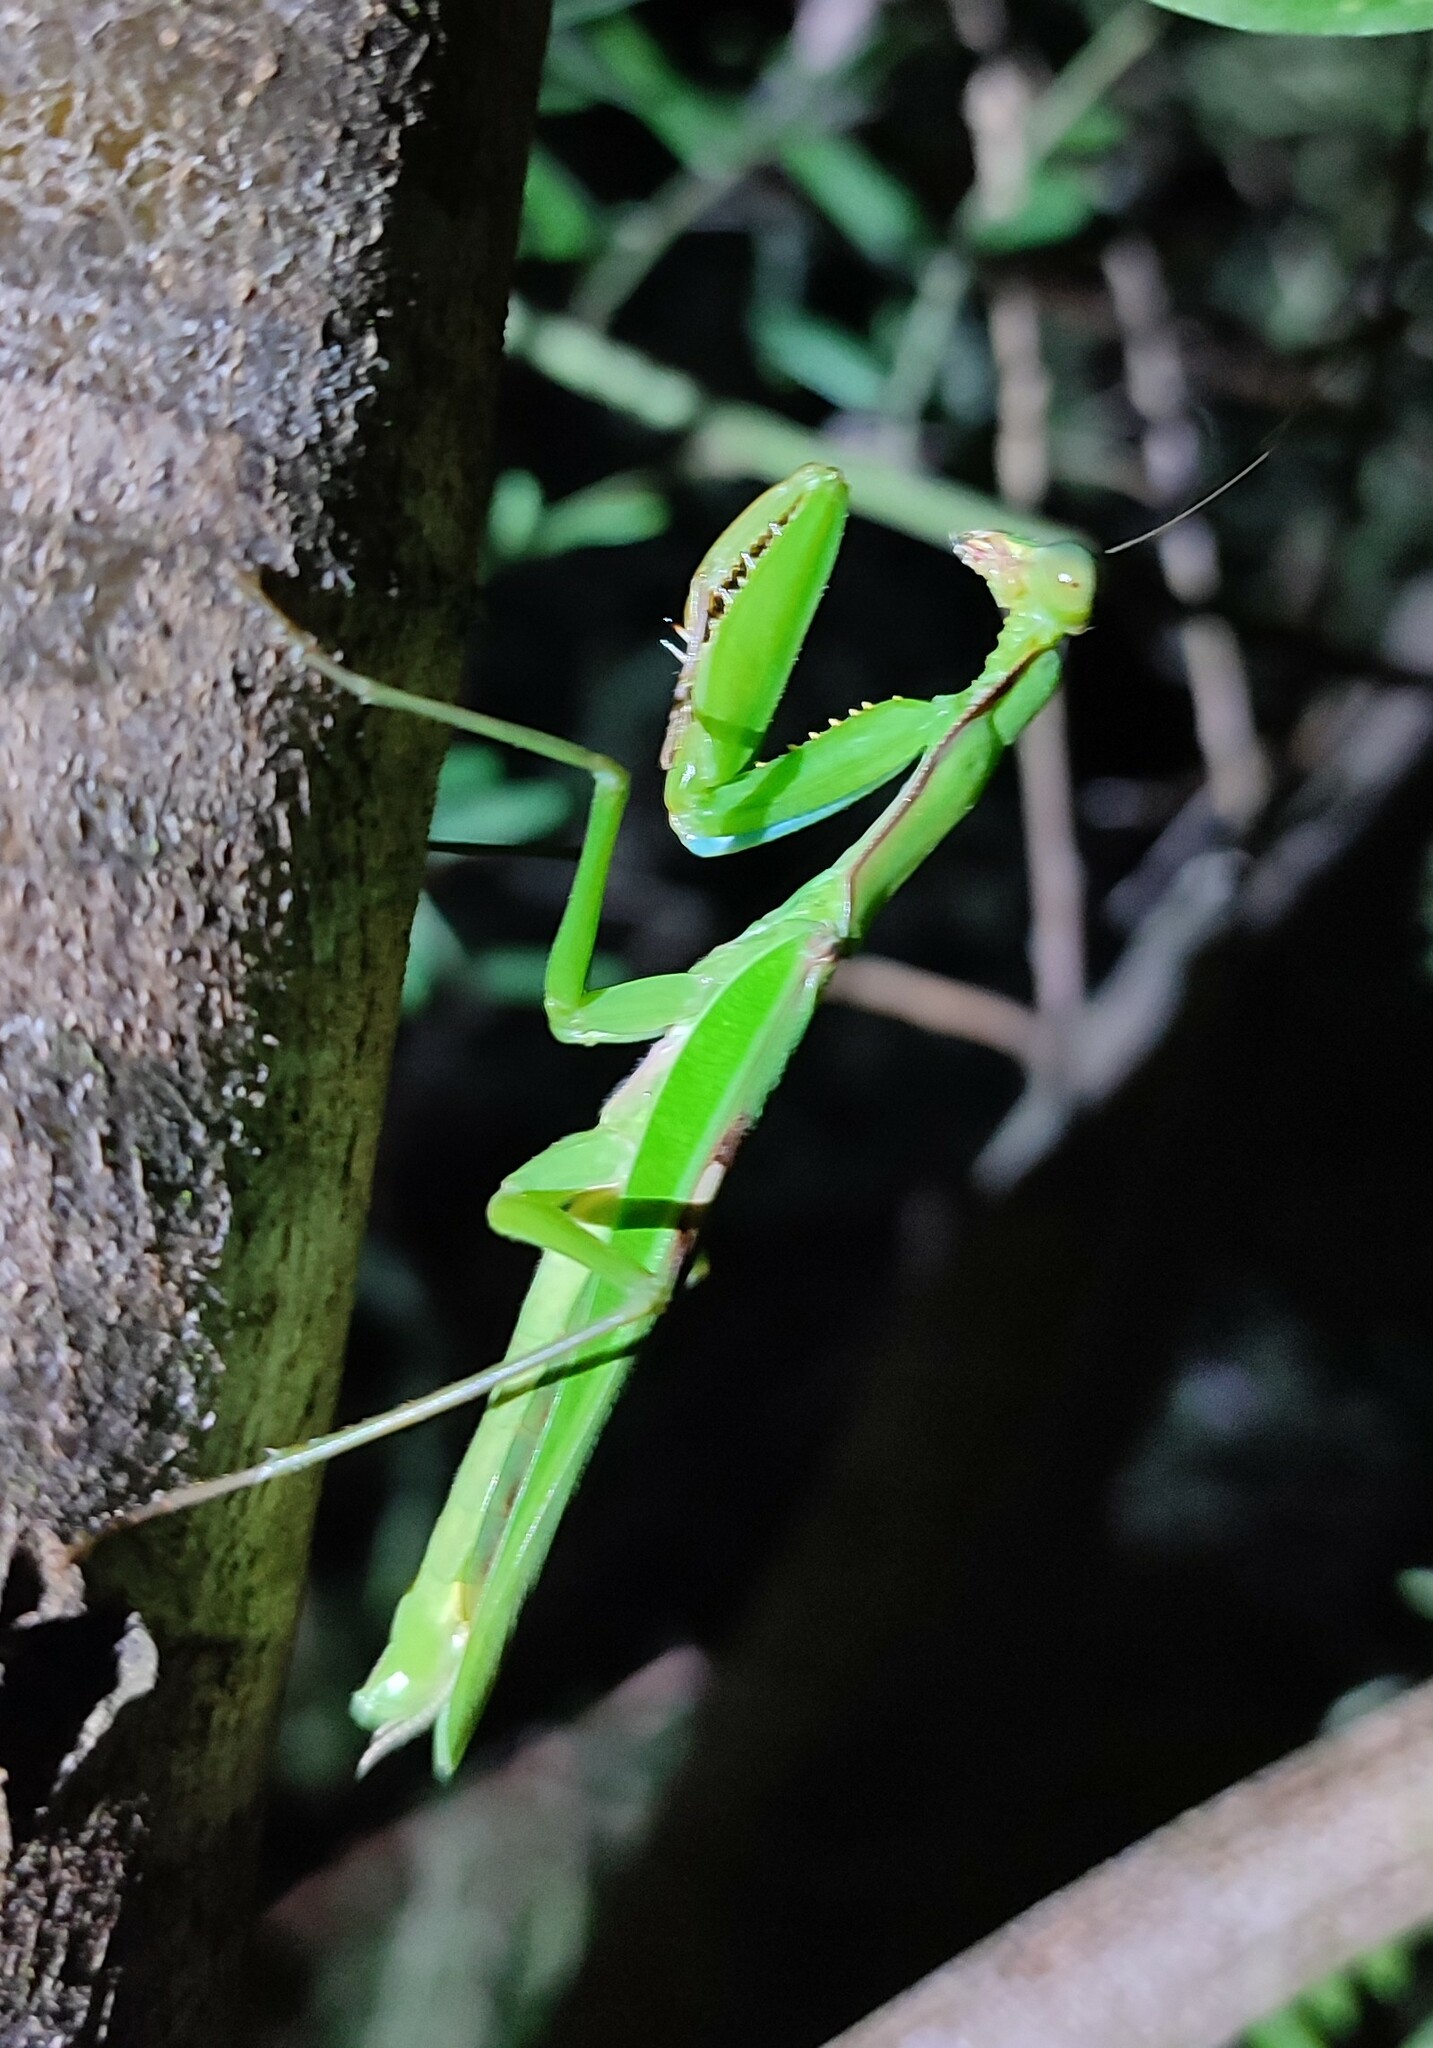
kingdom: Animalia
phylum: Arthropoda
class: Insecta
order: Mantodea
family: Mantidae
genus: Polyspilota
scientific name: Polyspilota aeruginosa
